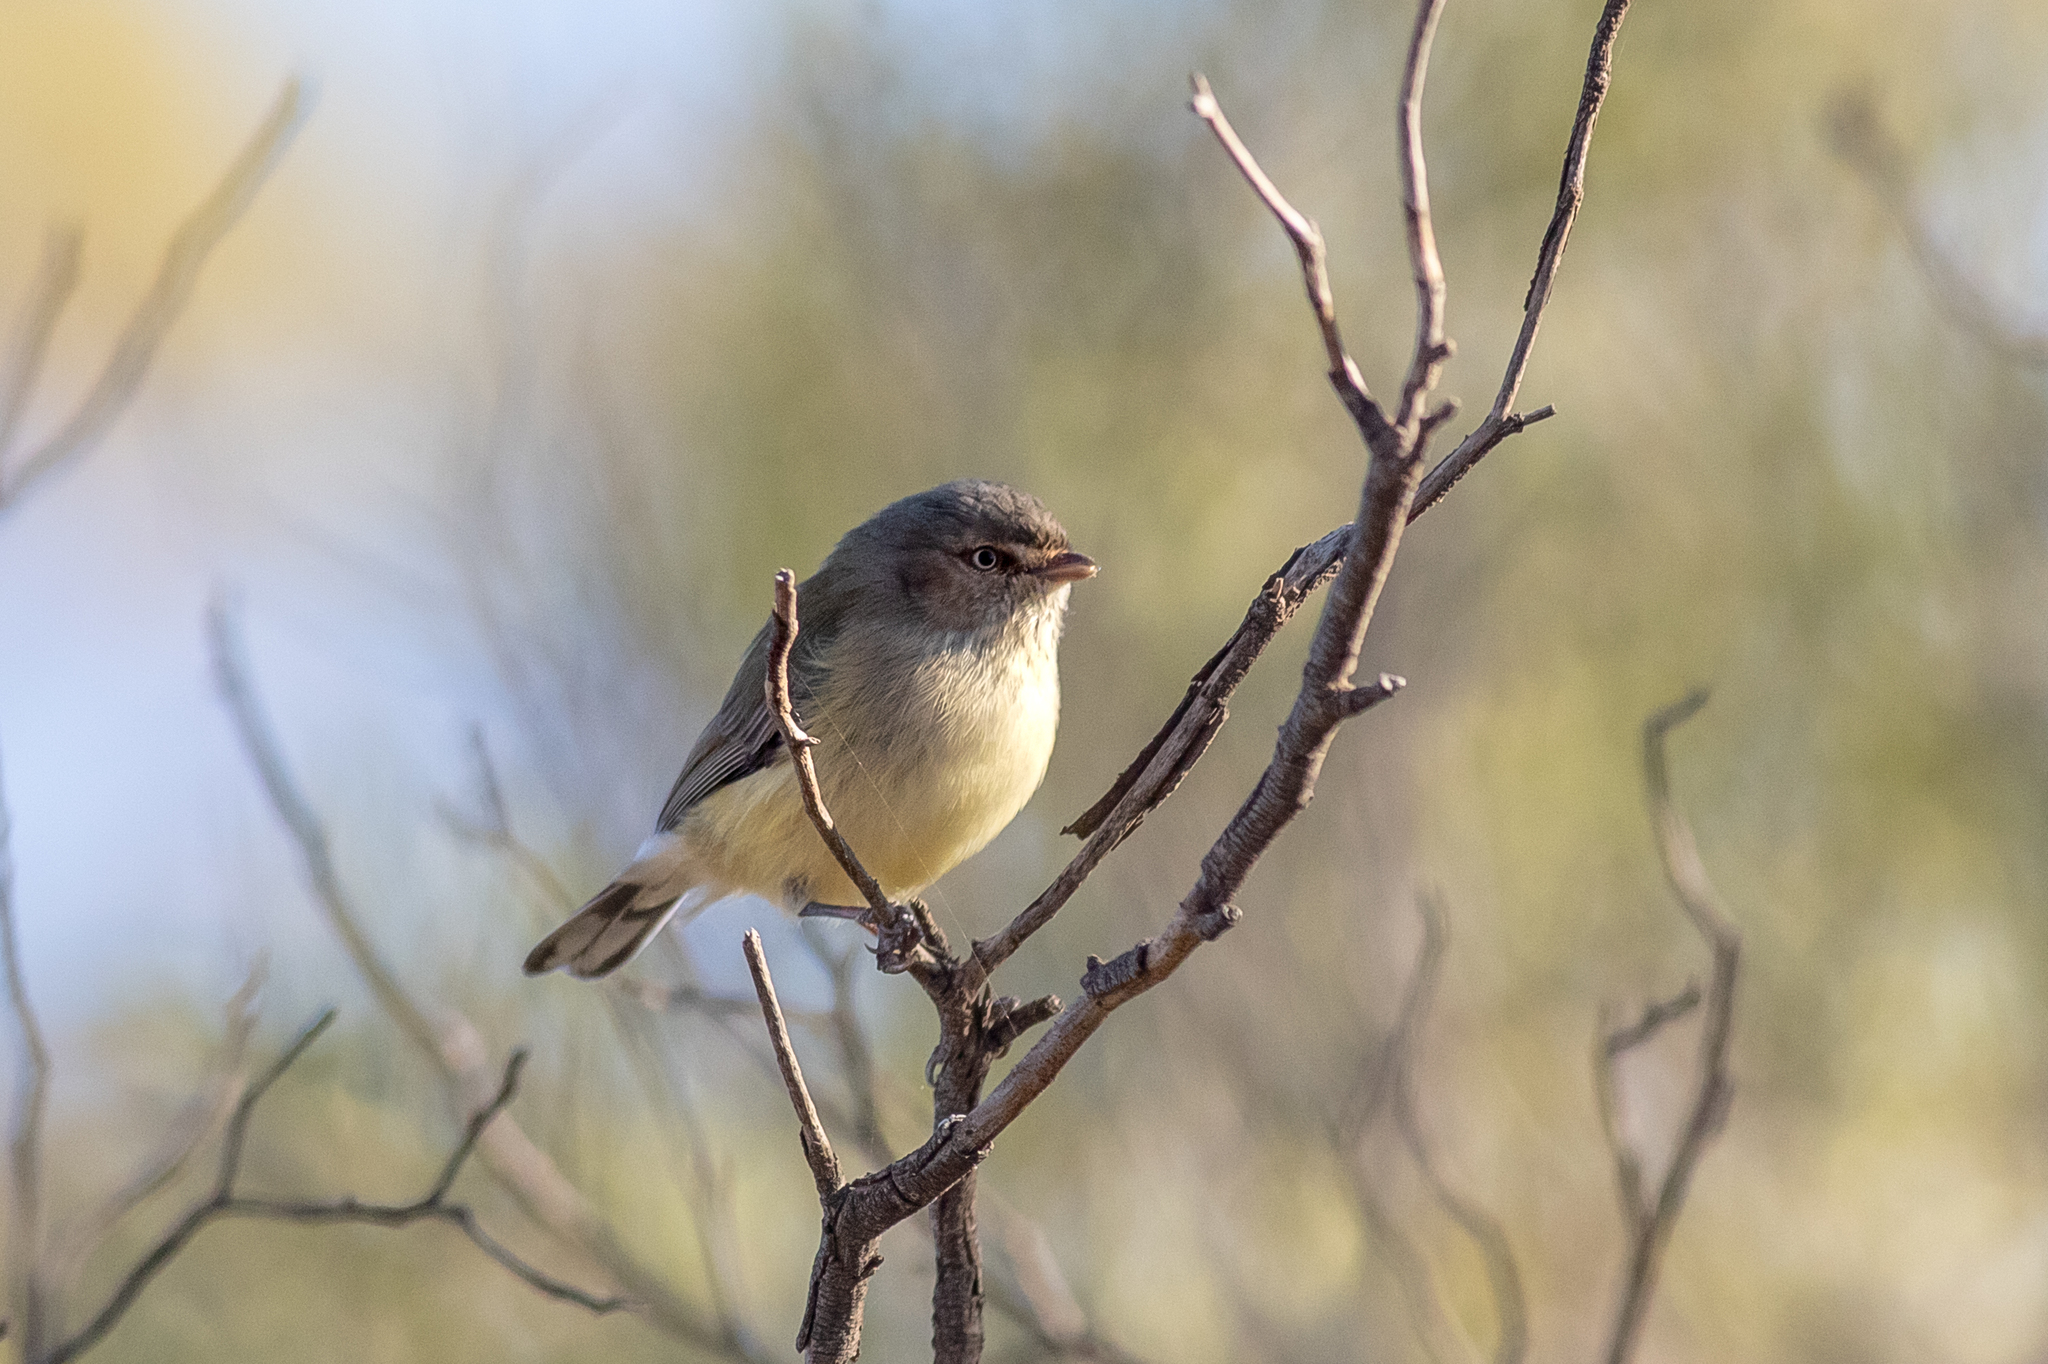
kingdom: Animalia
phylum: Chordata
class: Aves
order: Passeriformes
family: Acanthizidae
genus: Smicrornis
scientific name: Smicrornis brevirostris
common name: Weebill
